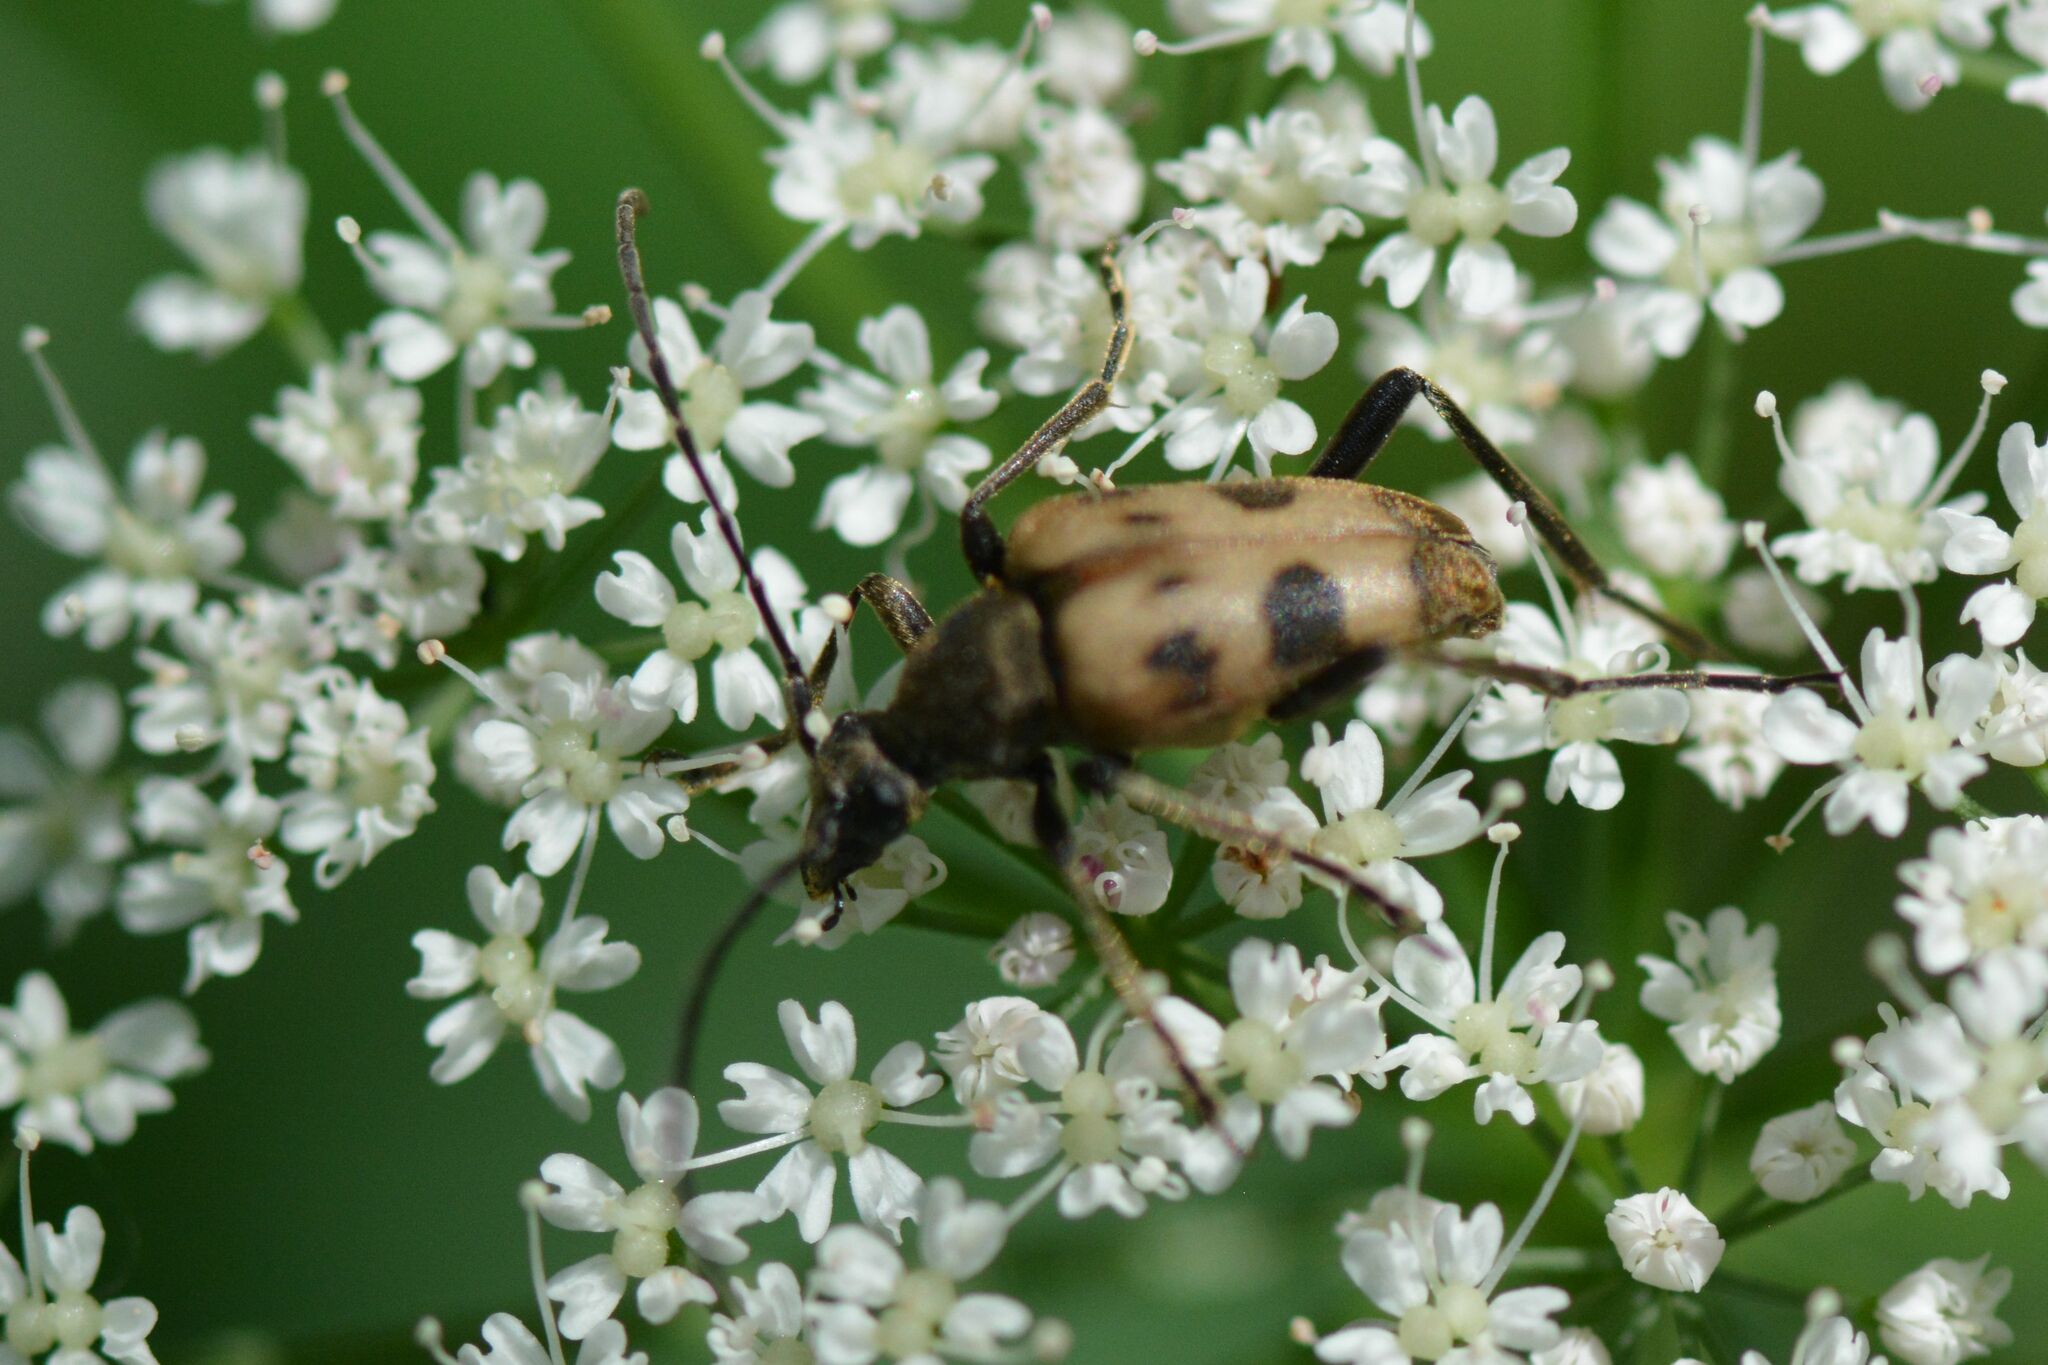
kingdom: Animalia
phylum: Arthropoda
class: Insecta
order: Coleoptera
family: Cerambycidae
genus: Pachytodes
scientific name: Pachytodes cerambyciformis
